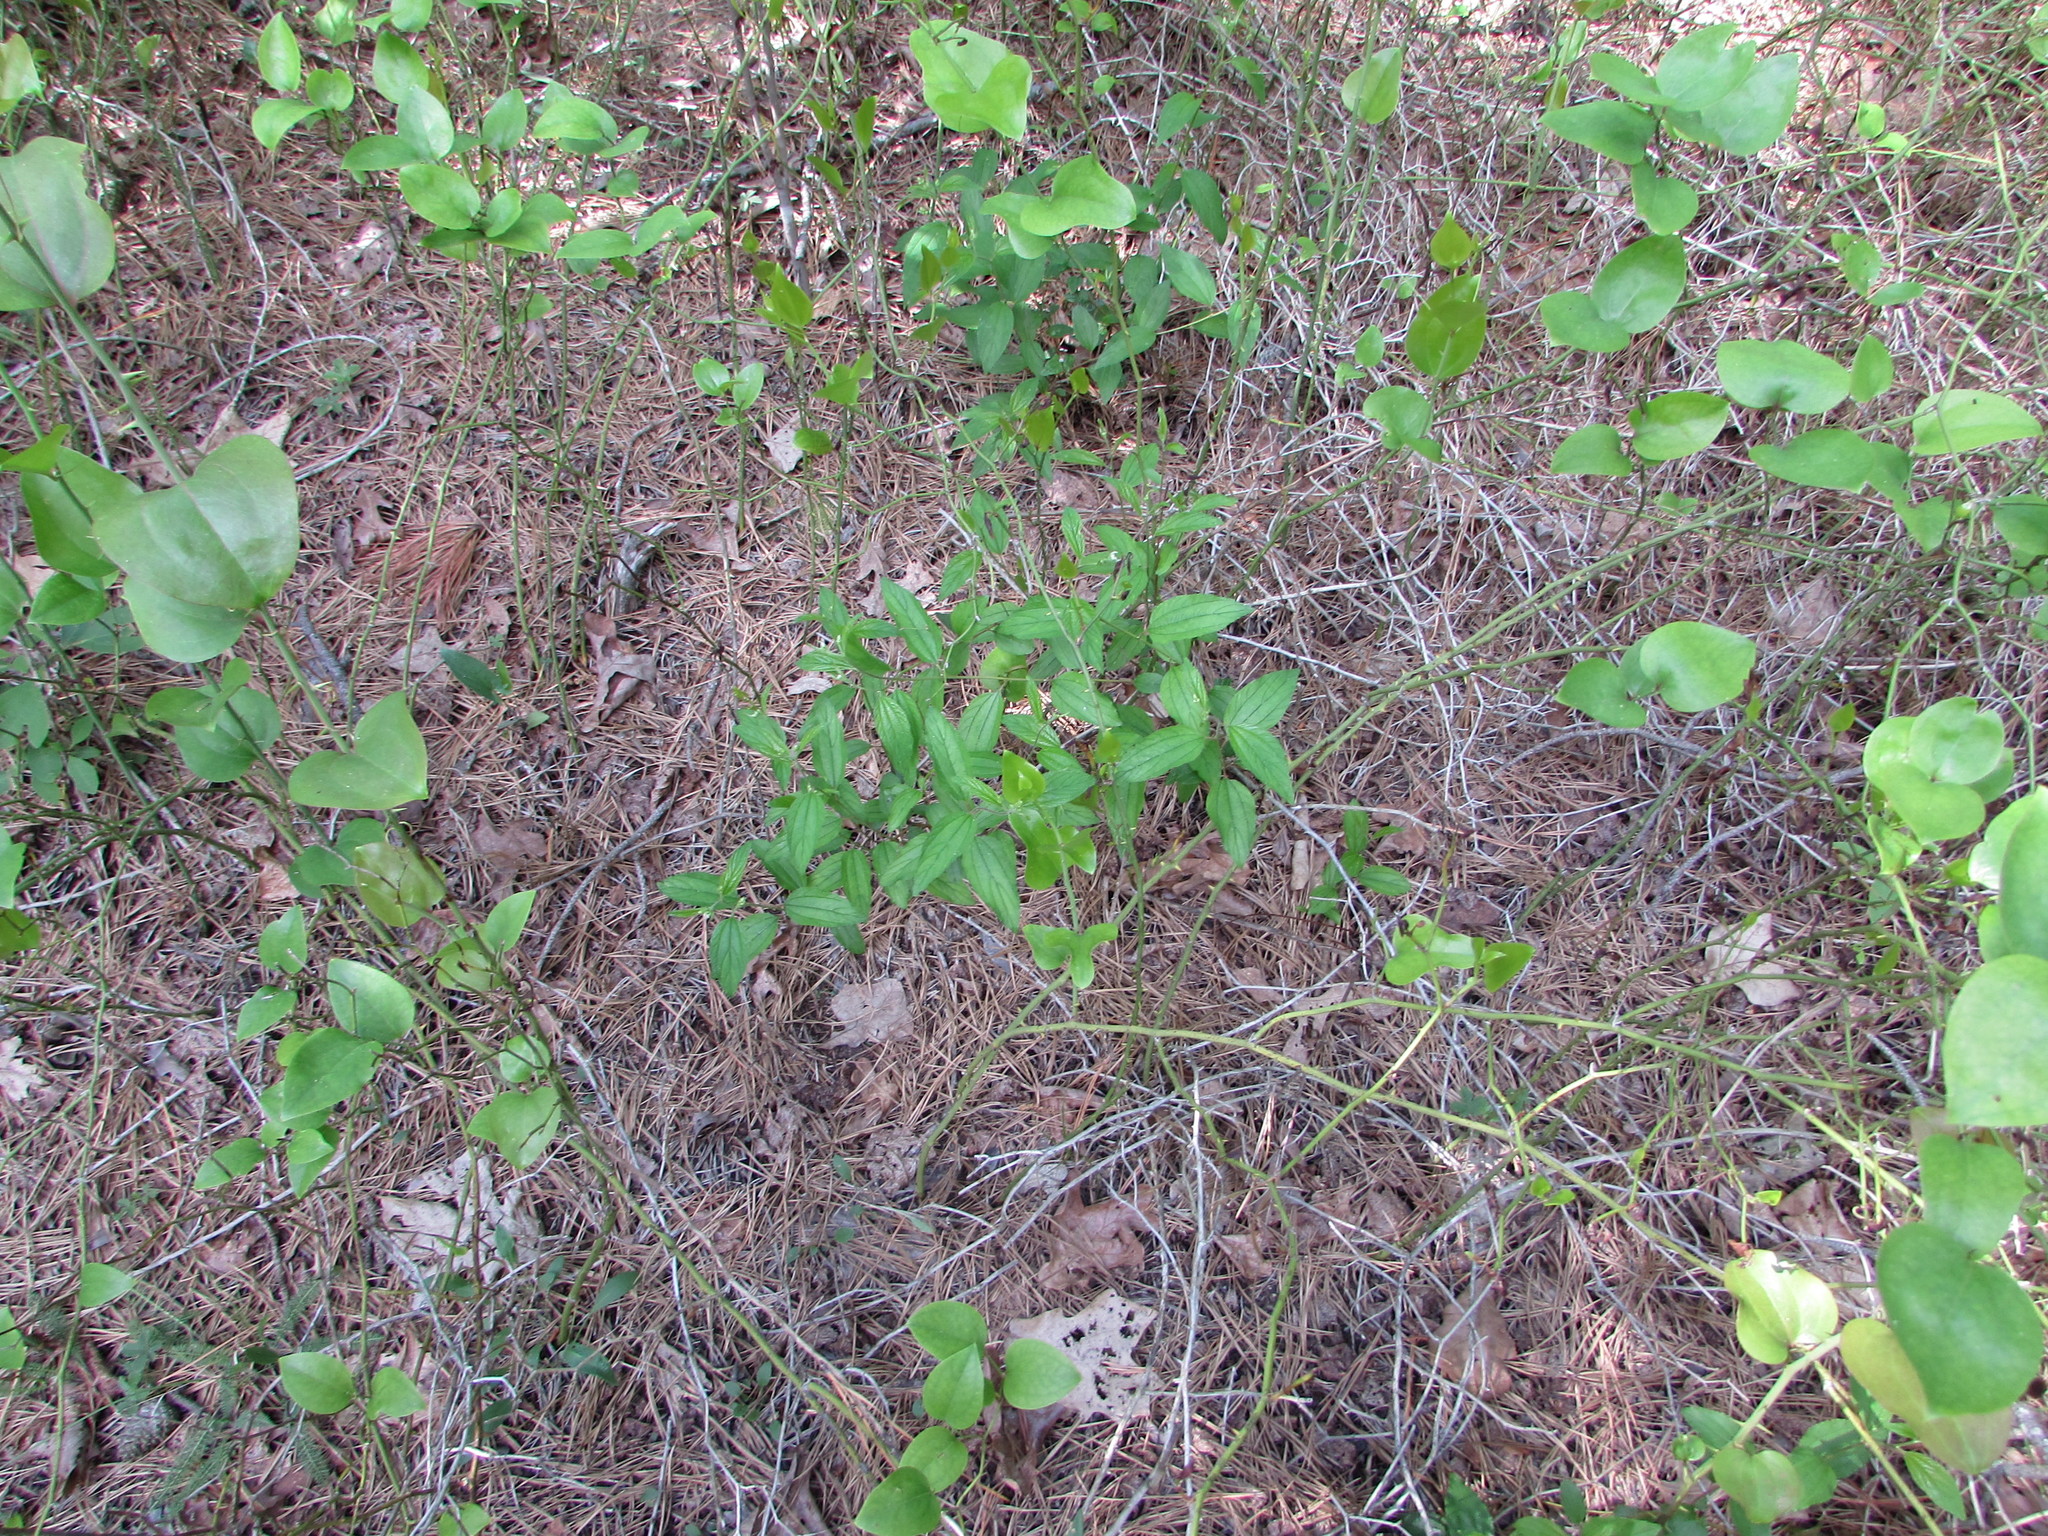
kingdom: Plantae
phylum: Tracheophyta
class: Magnoliopsida
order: Rosales
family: Rhamnaceae
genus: Ceanothus
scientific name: Ceanothus americanus
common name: Redroot
